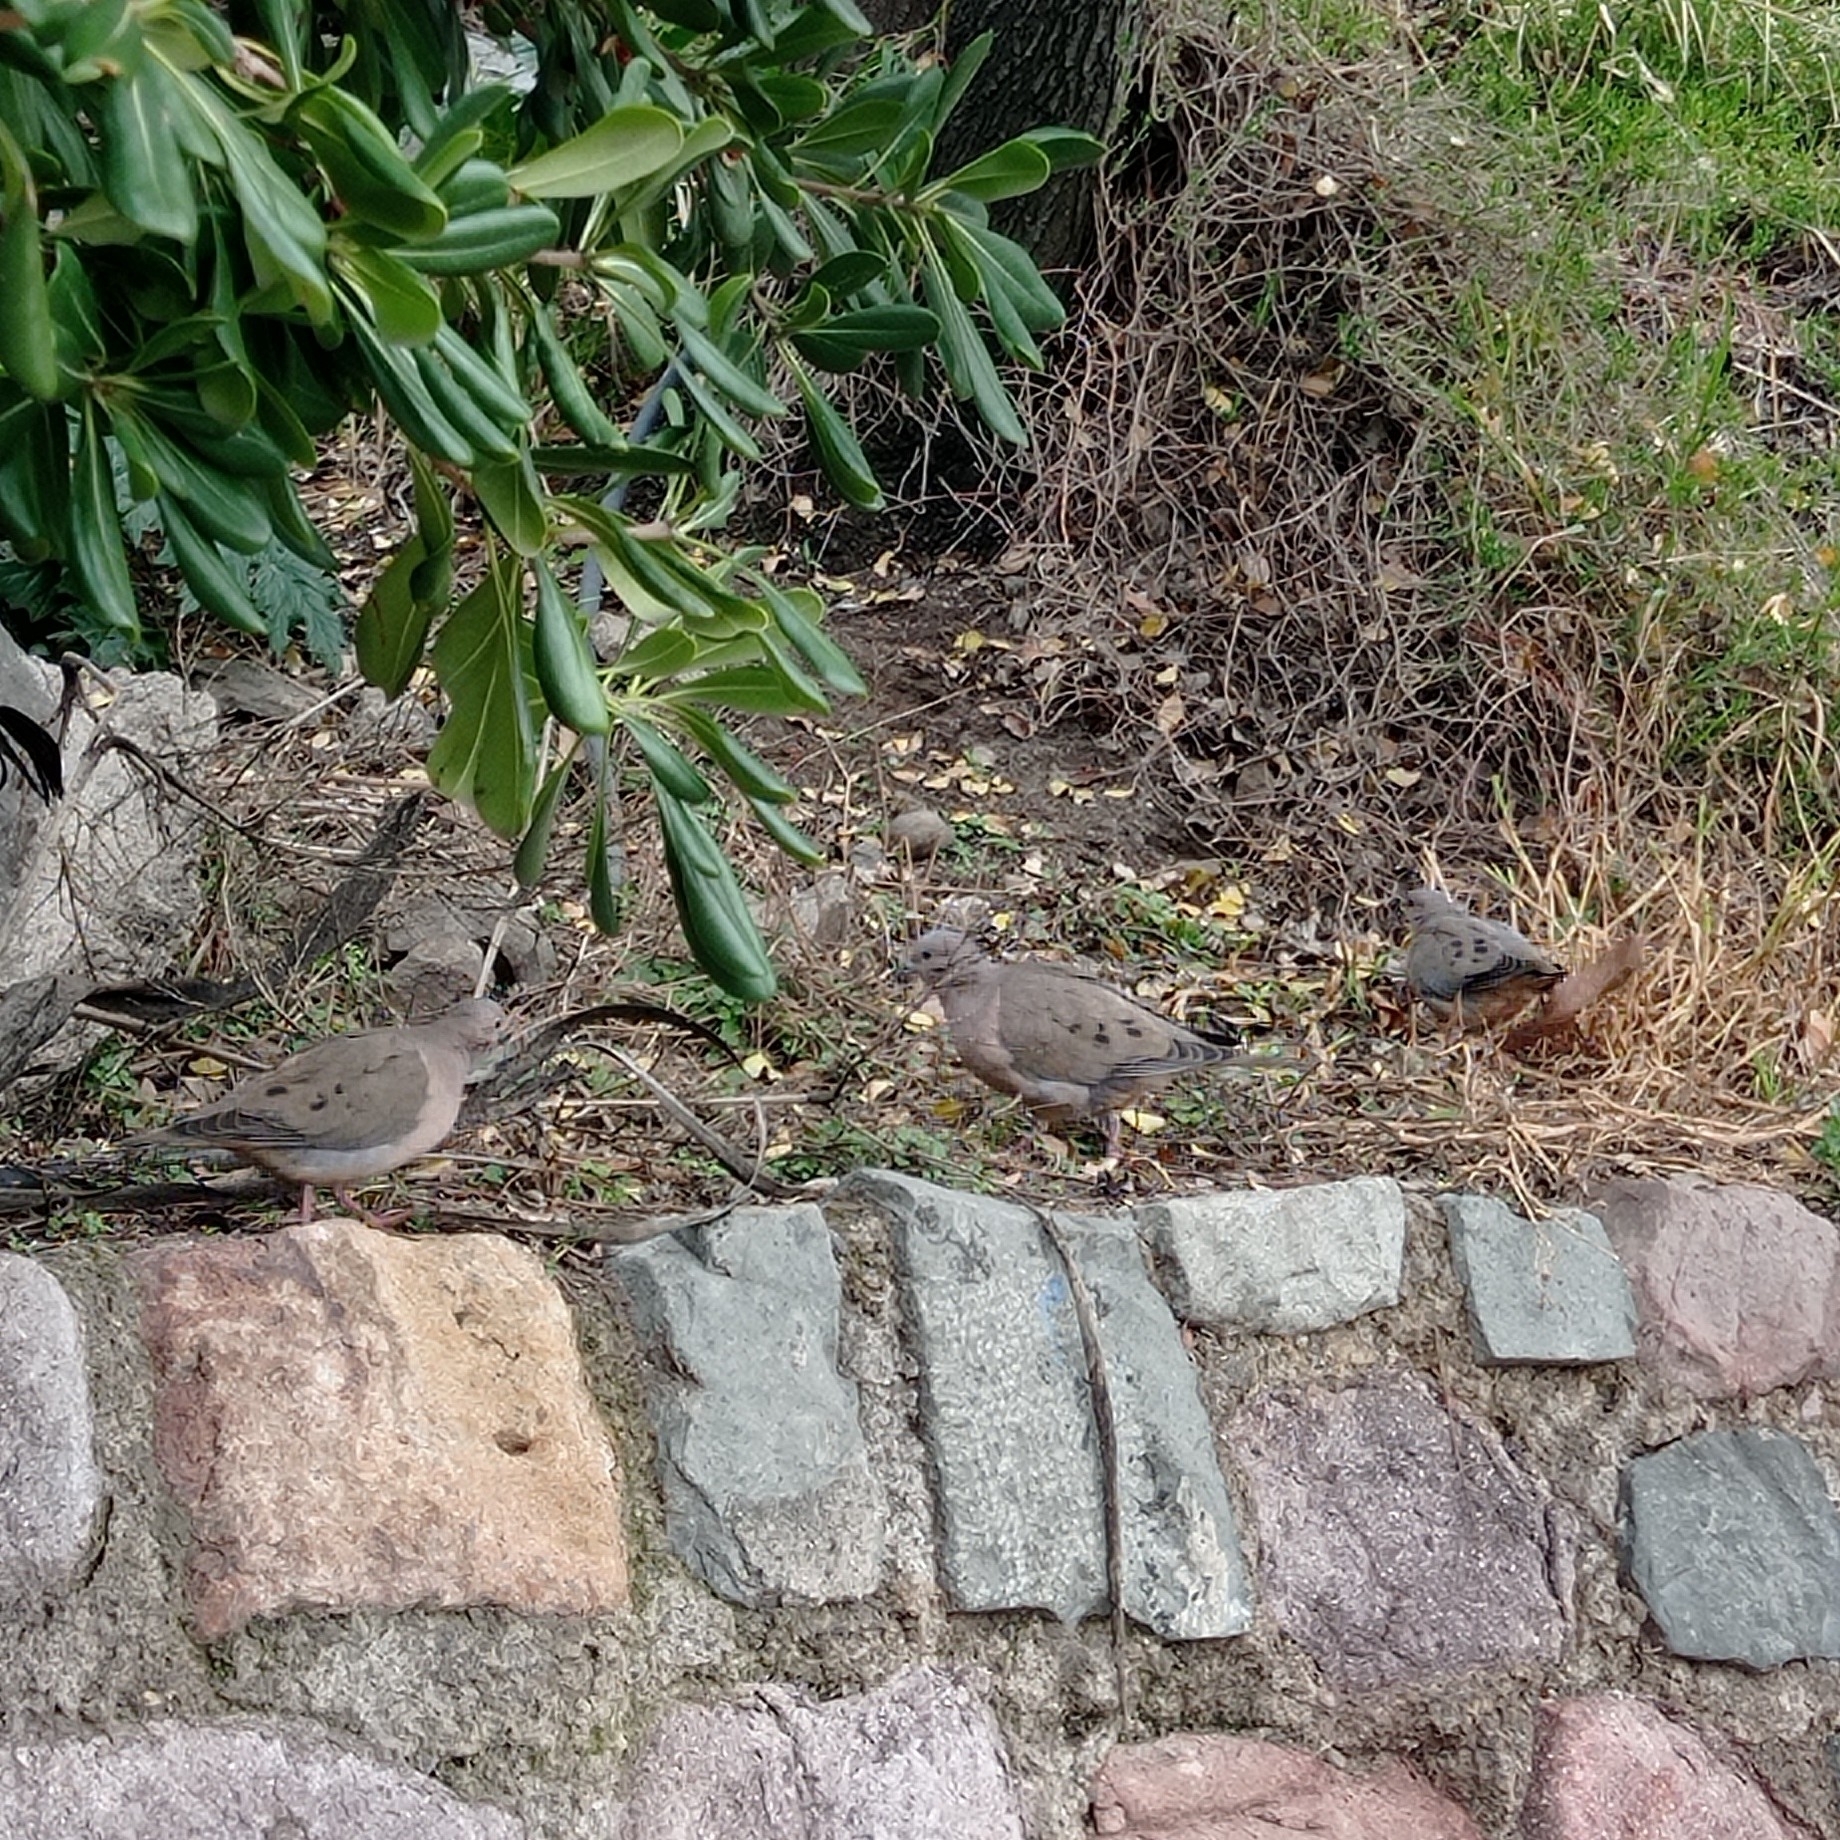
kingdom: Animalia
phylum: Chordata
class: Aves
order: Columbiformes
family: Columbidae
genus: Zenaida
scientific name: Zenaida auriculata
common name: Eared dove
